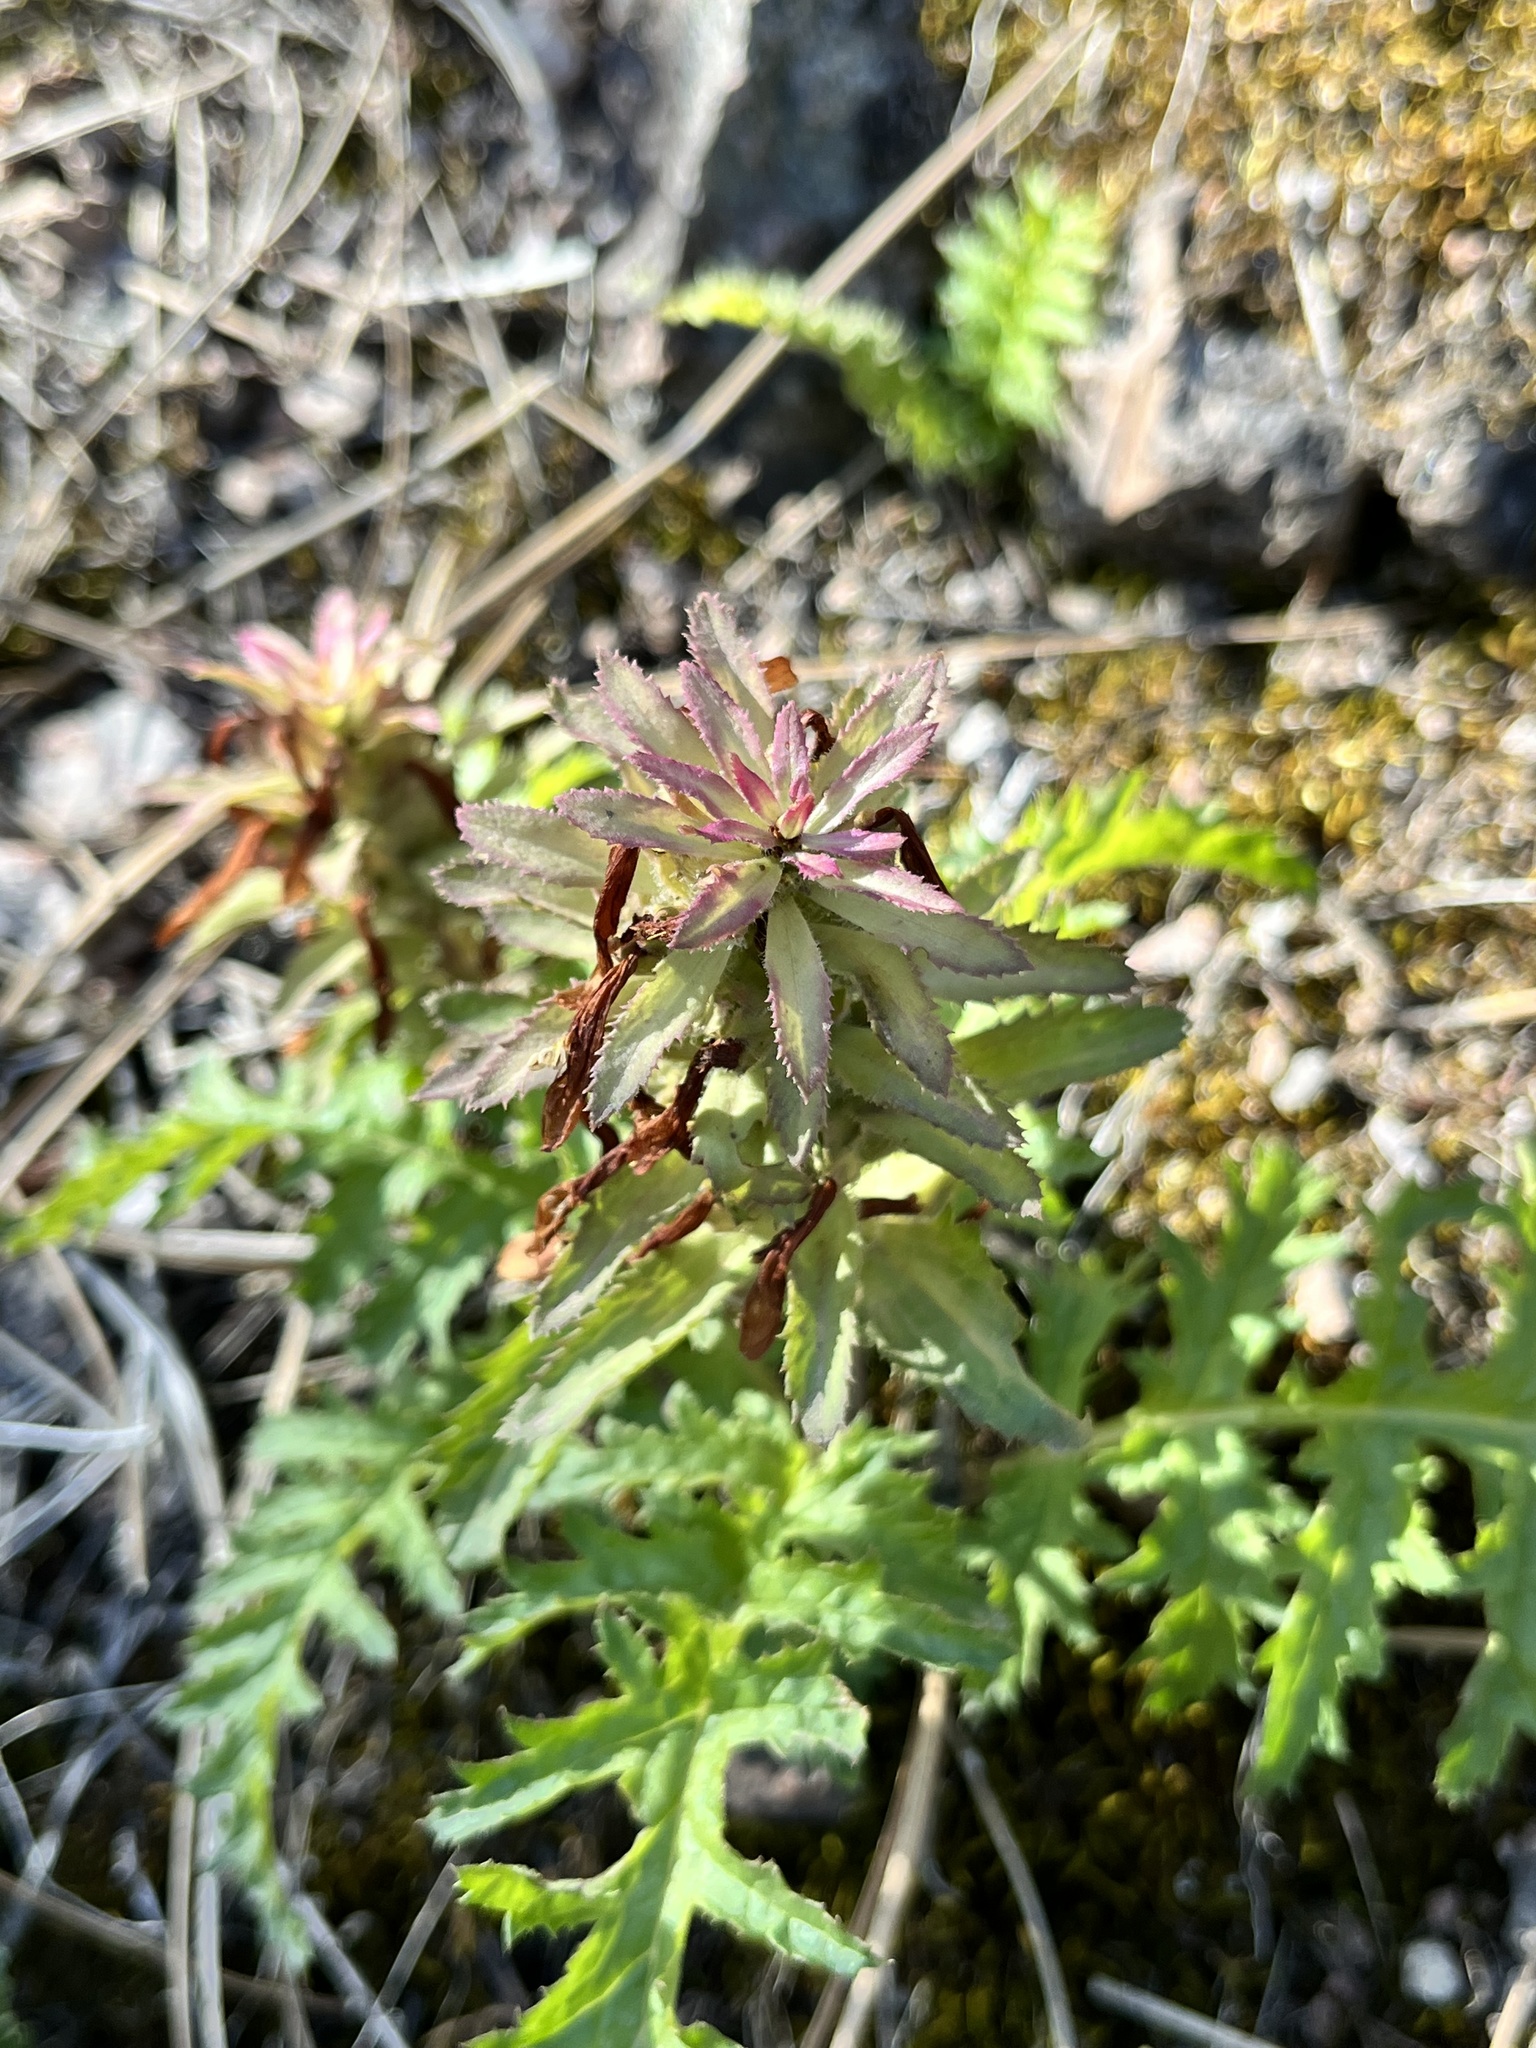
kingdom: Plantae
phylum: Tracheophyta
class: Magnoliopsida
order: Lamiales
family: Orobanchaceae
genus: Pedicularis
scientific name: Pedicularis densiflora
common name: Indian warrior
